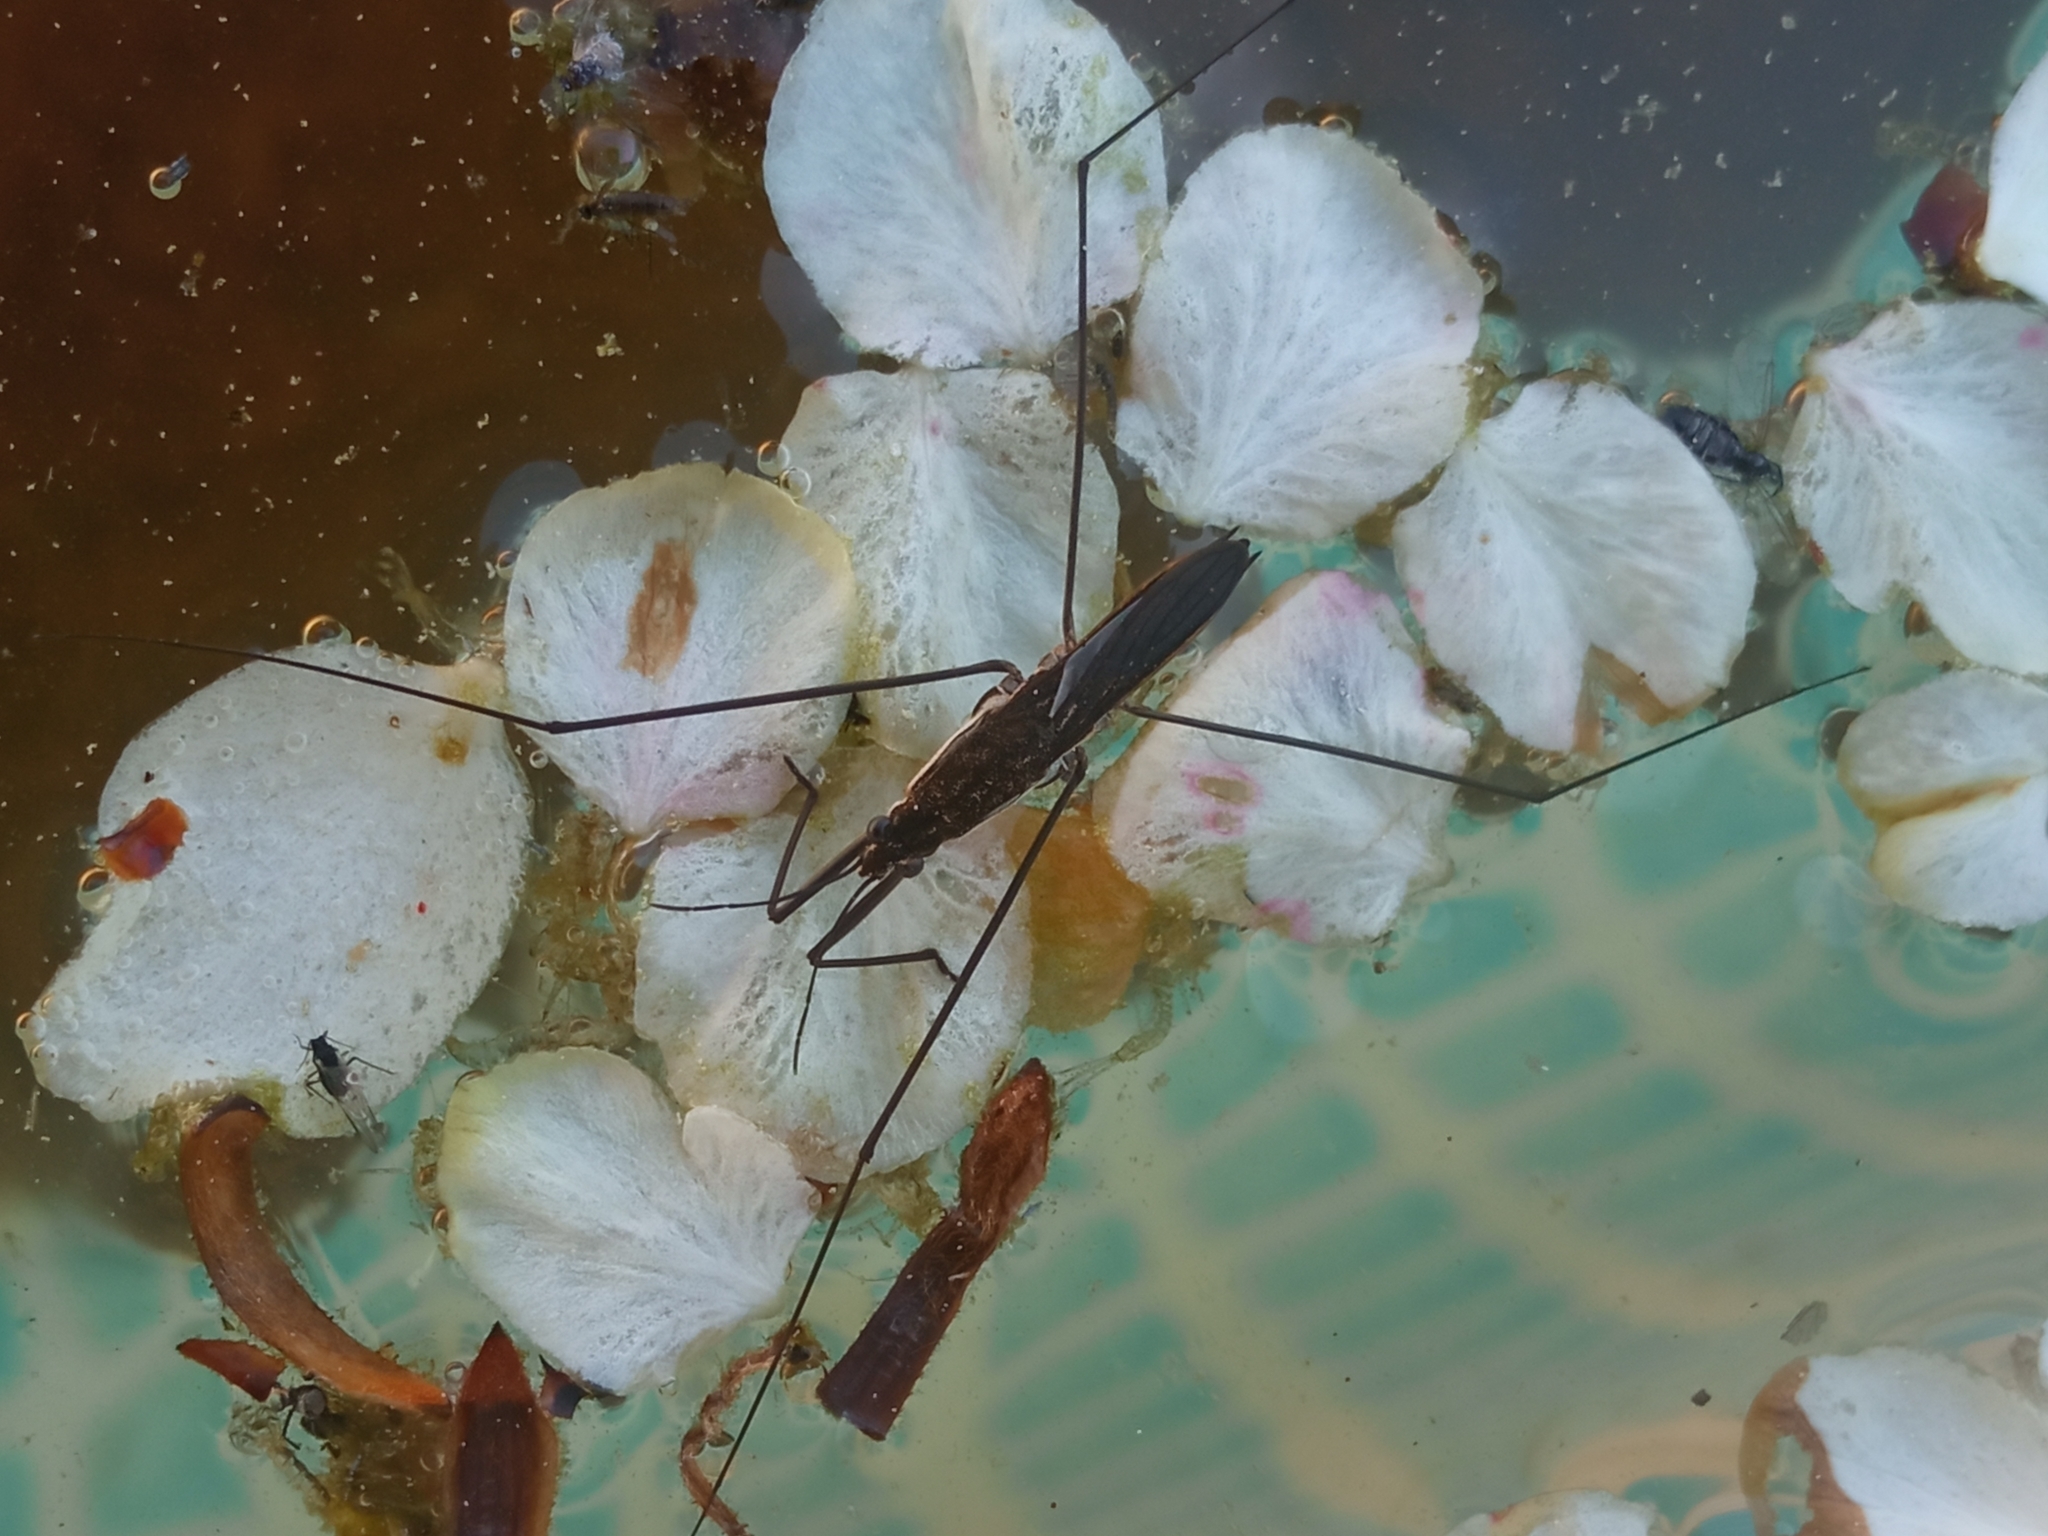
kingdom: Animalia
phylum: Arthropoda
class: Insecta
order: Hemiptera
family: Gerridae
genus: Aquarius
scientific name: Aquarius paludum
